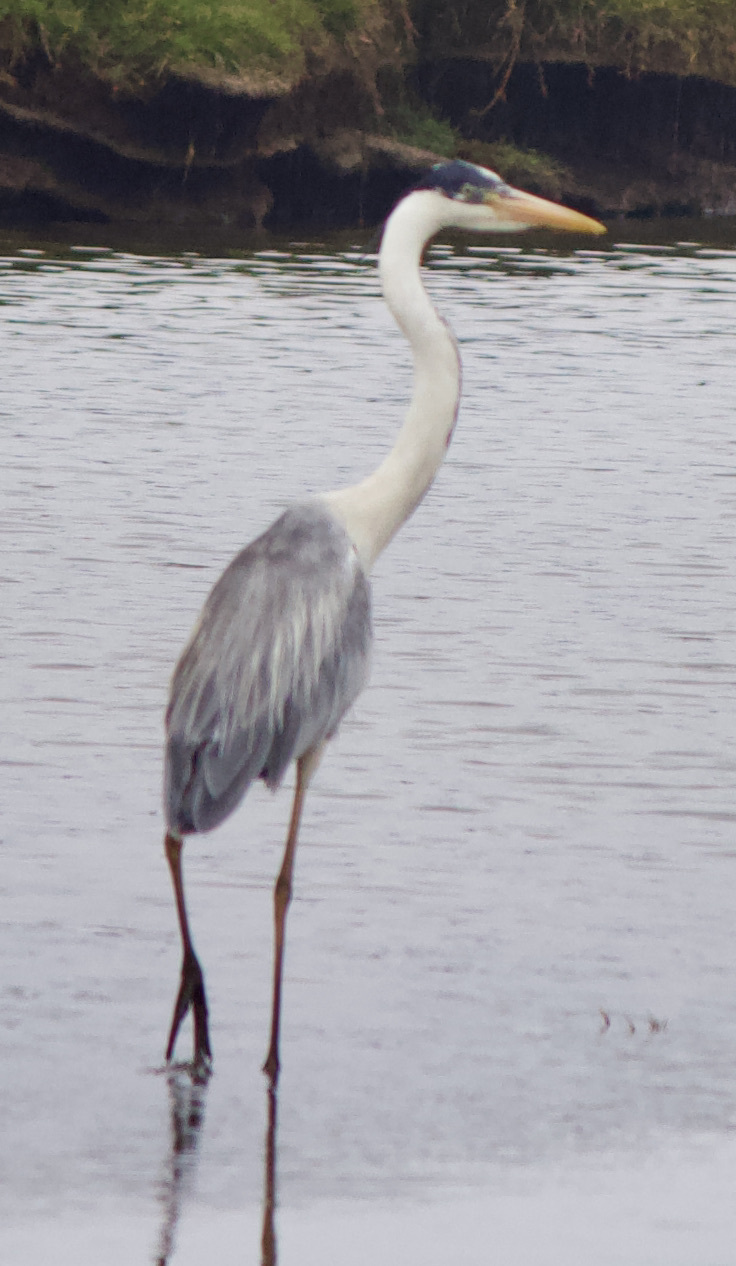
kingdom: Animalia
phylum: Chordata
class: Aves
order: Pelecaniformes
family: Ardeidae
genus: Ardea
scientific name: Ardea cocoi
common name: Cocoi heron
